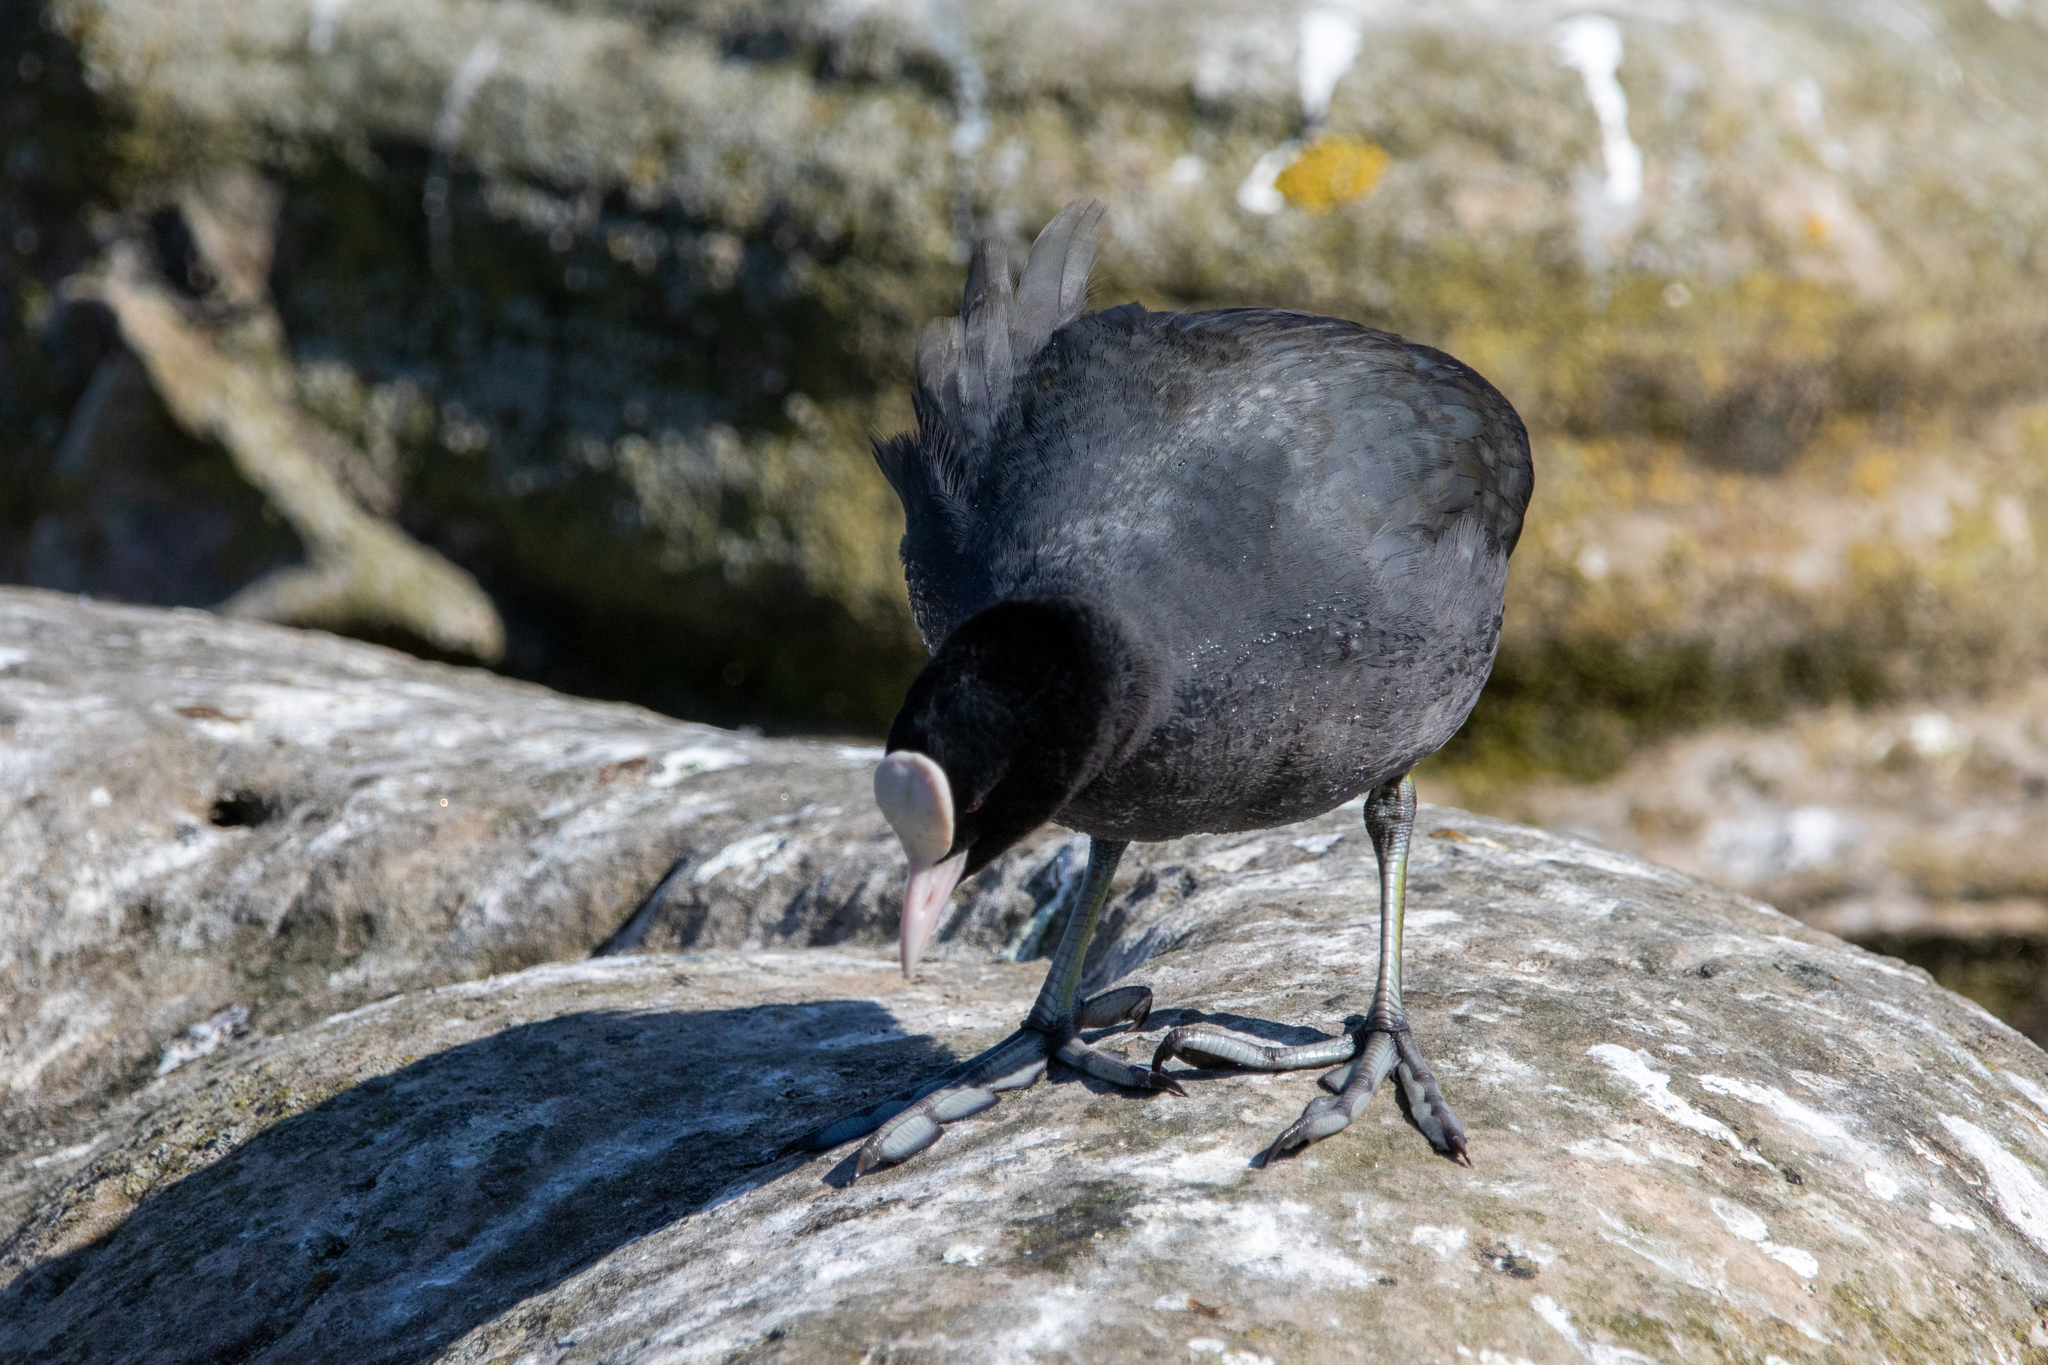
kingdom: Animalia
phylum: Chordata
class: Aves
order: Gruiformes
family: Rallidae
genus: Fulica
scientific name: Fulica atra
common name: Eurasian coot
